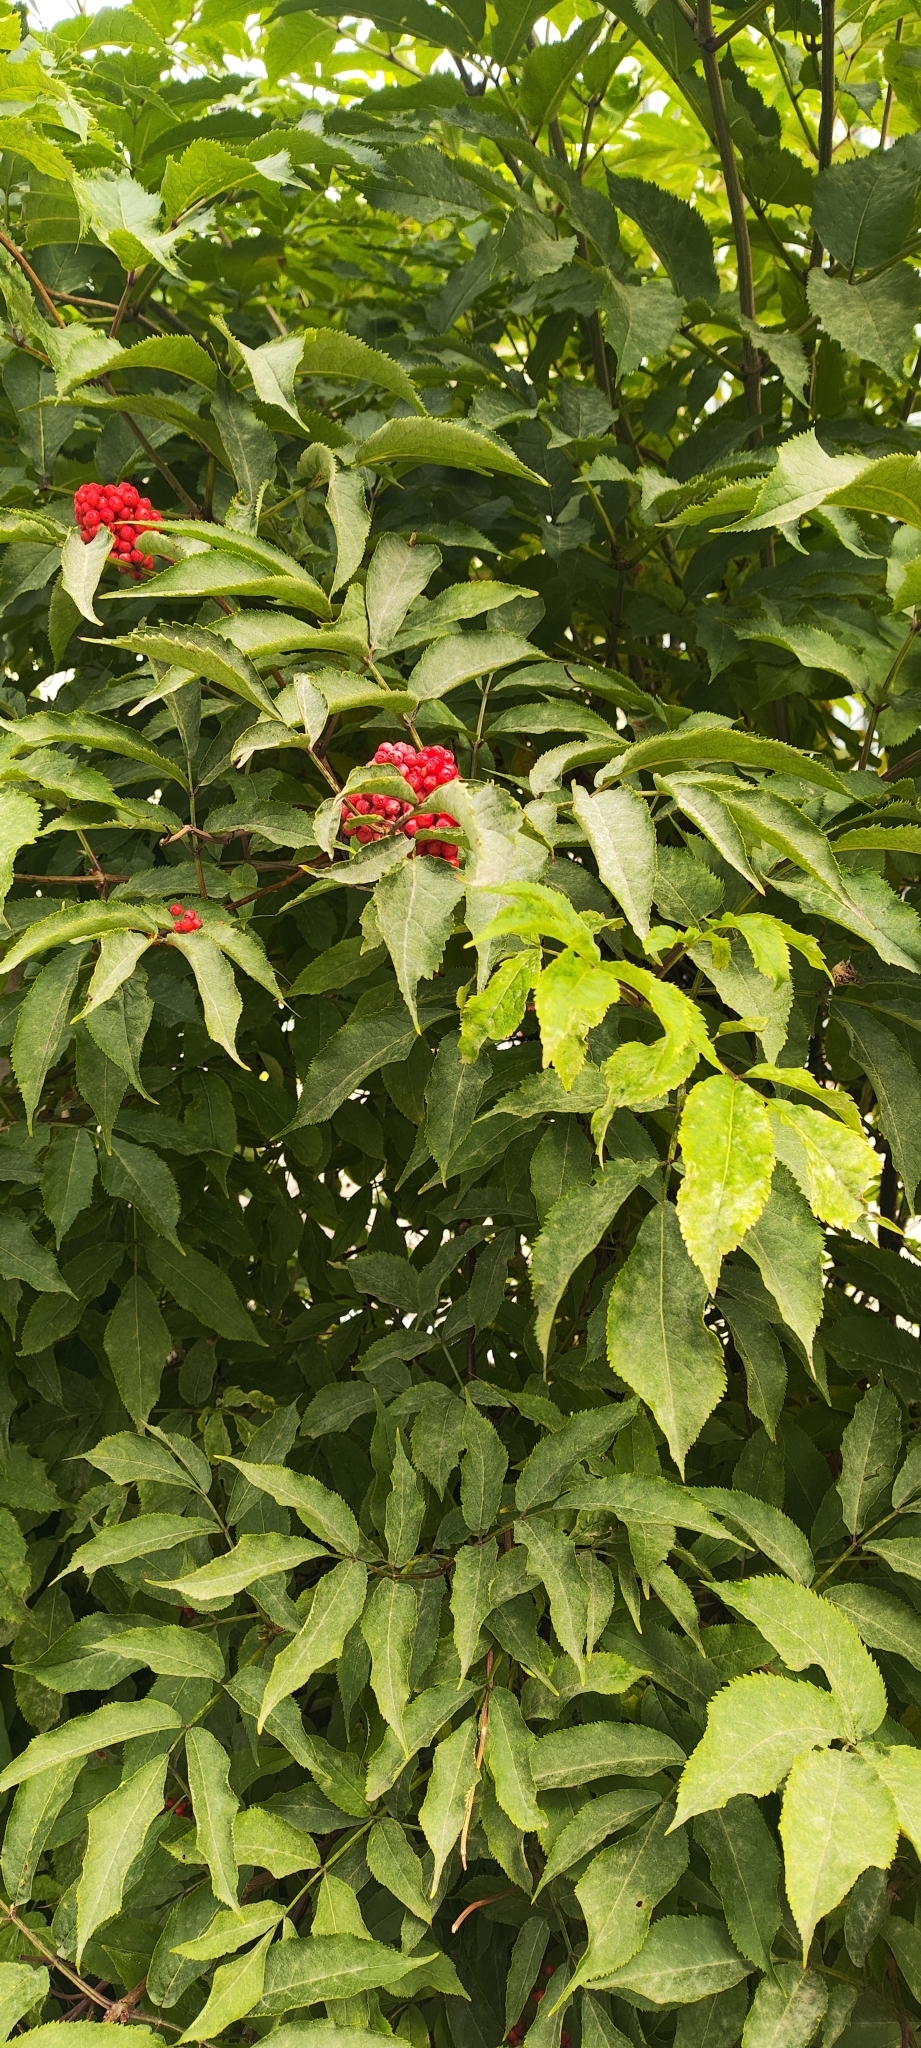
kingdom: Plantae
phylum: Tracheophyta
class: Magnoliopsida
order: Dipsacales
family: Viburnaceae
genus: Sambucus
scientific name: Sambucus racemosa
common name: Red-berried elder
